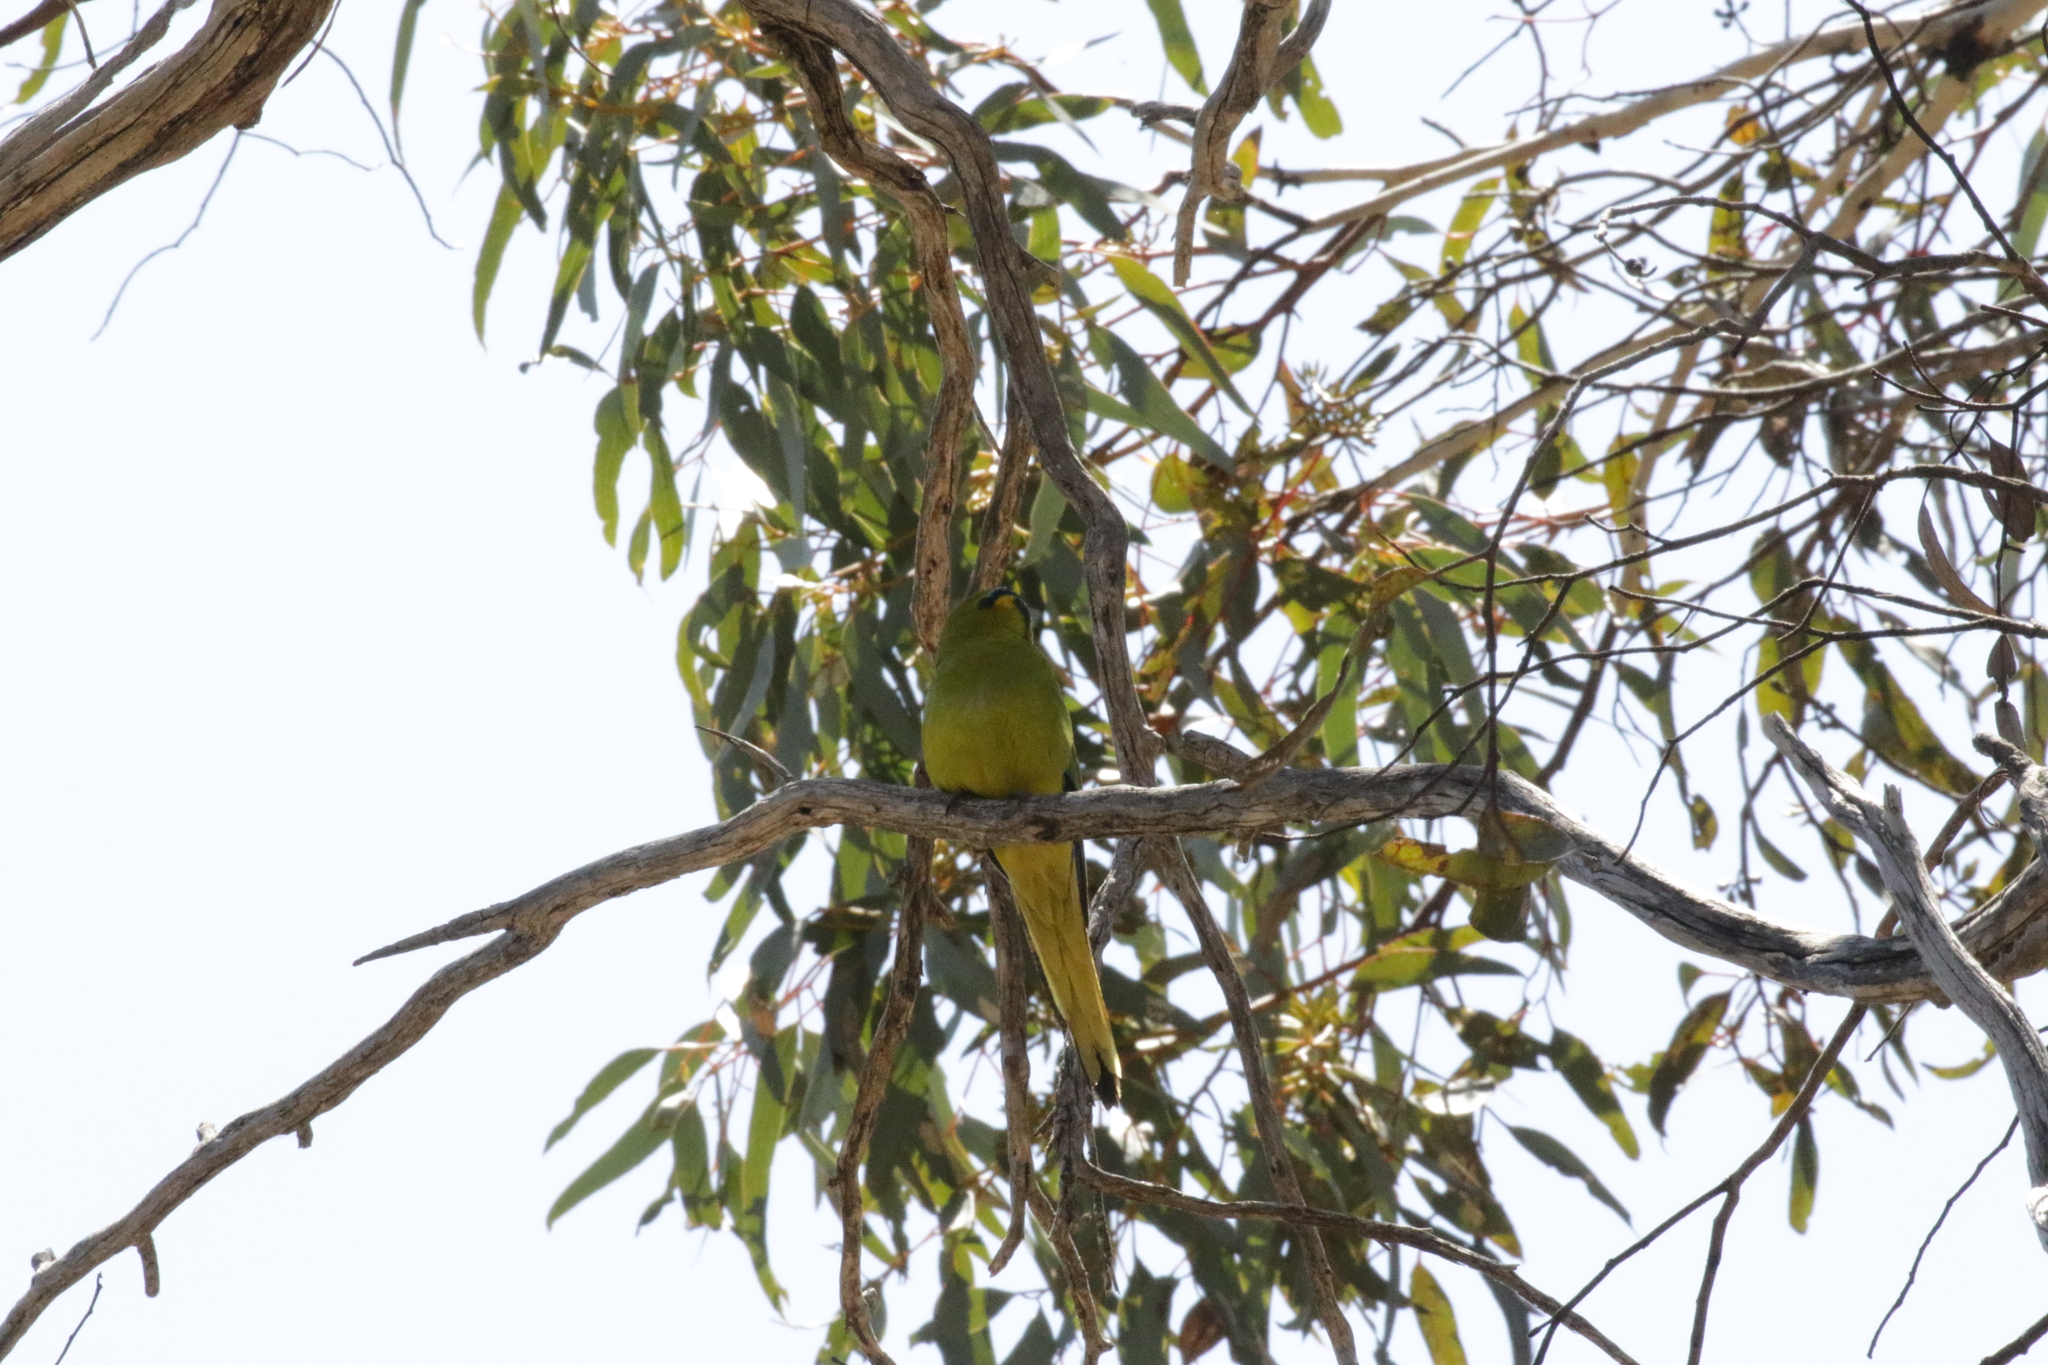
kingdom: Animalia
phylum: Chordata
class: Aves
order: Psittaciformes
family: Psittacidae
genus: Neophema
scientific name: Neophema elegans
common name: Elegant parrot
